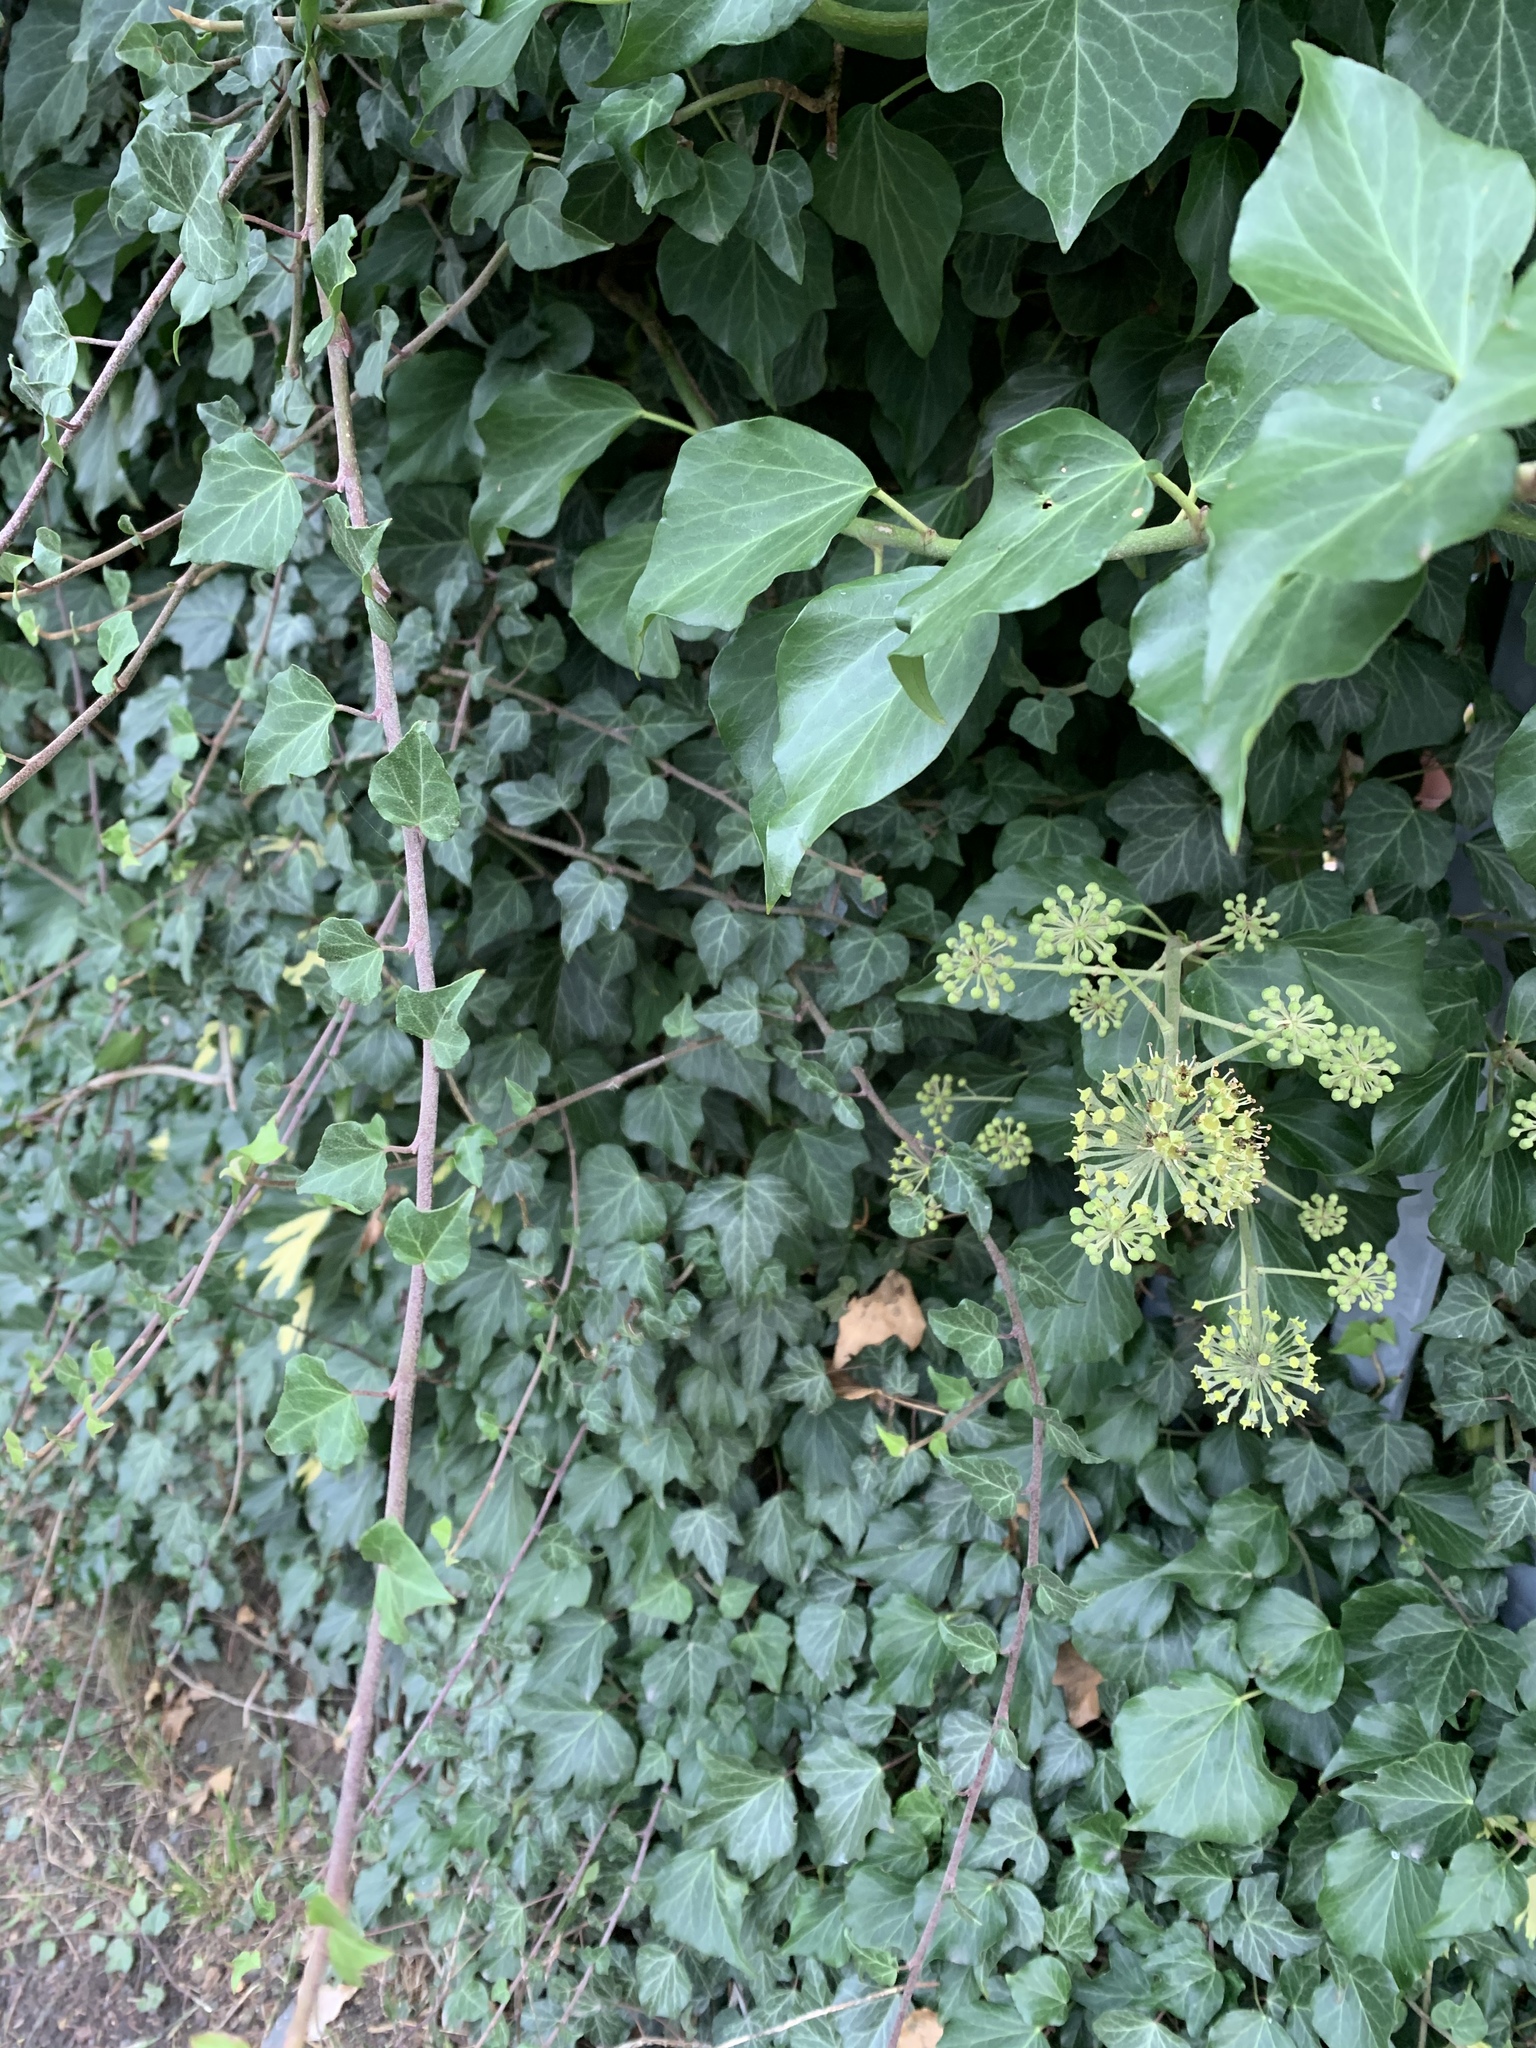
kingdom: Plantae
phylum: Tracheophyta
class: Magnoliopsida
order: Apiales
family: Araliaceae
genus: Hedera
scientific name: Hedera helix
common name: Ivy
